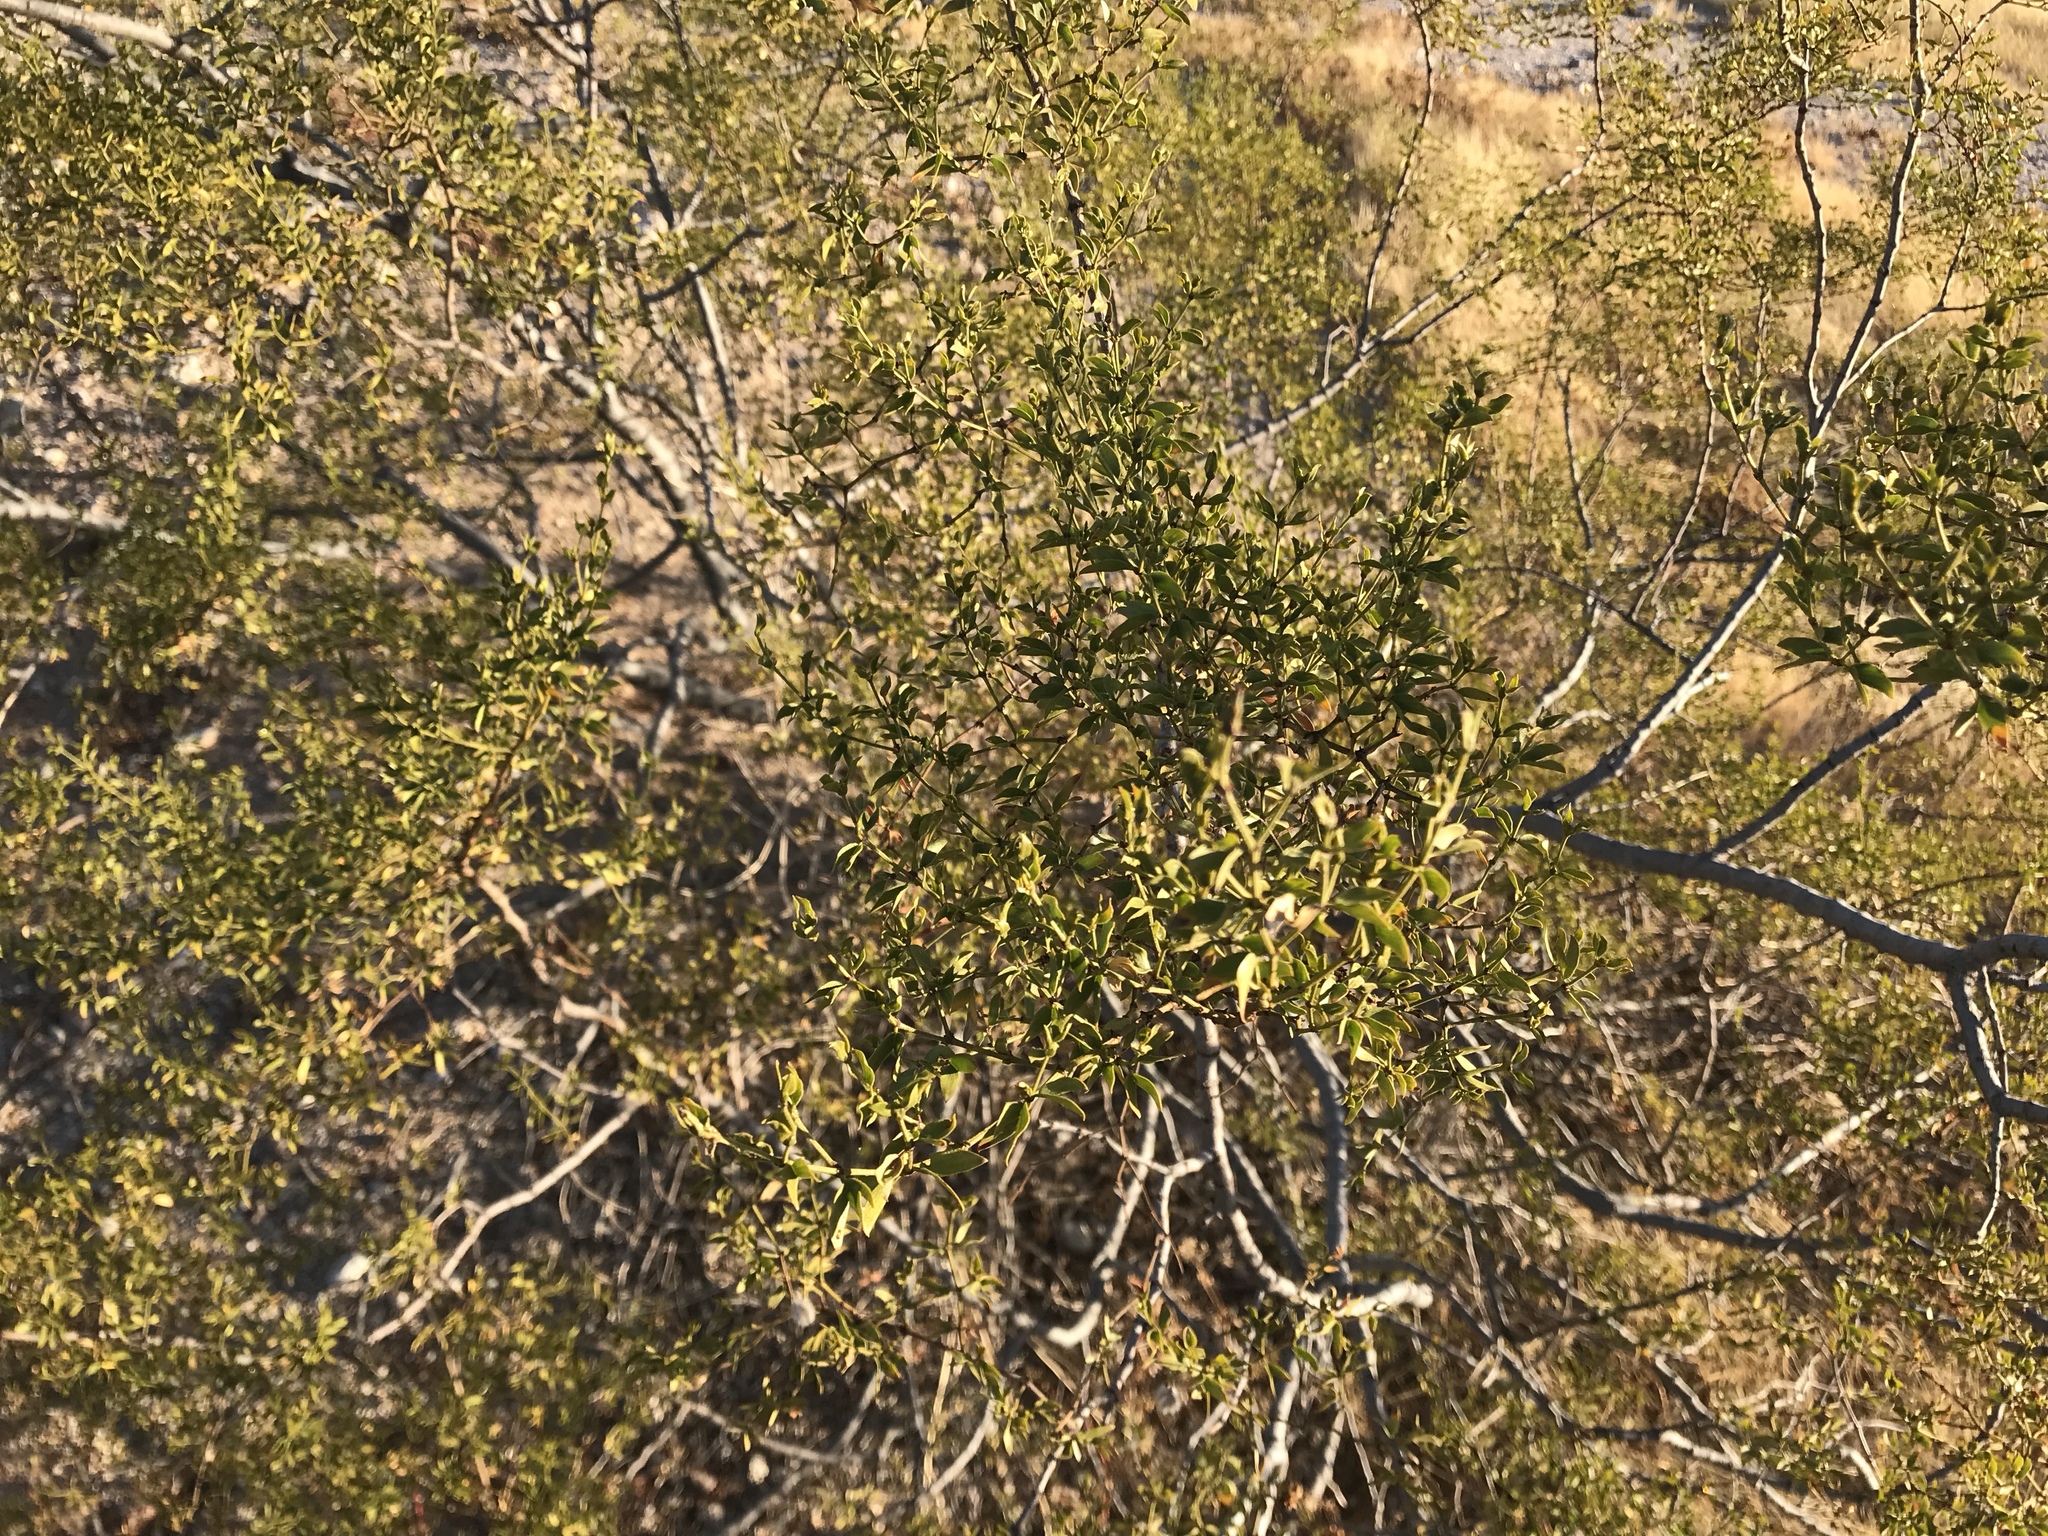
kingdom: Plantae
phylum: Tracheophyta
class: Magnoliopsida
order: Zygophyllales
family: Zygophyllaceae
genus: Larrea
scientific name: Larrea tridentata
